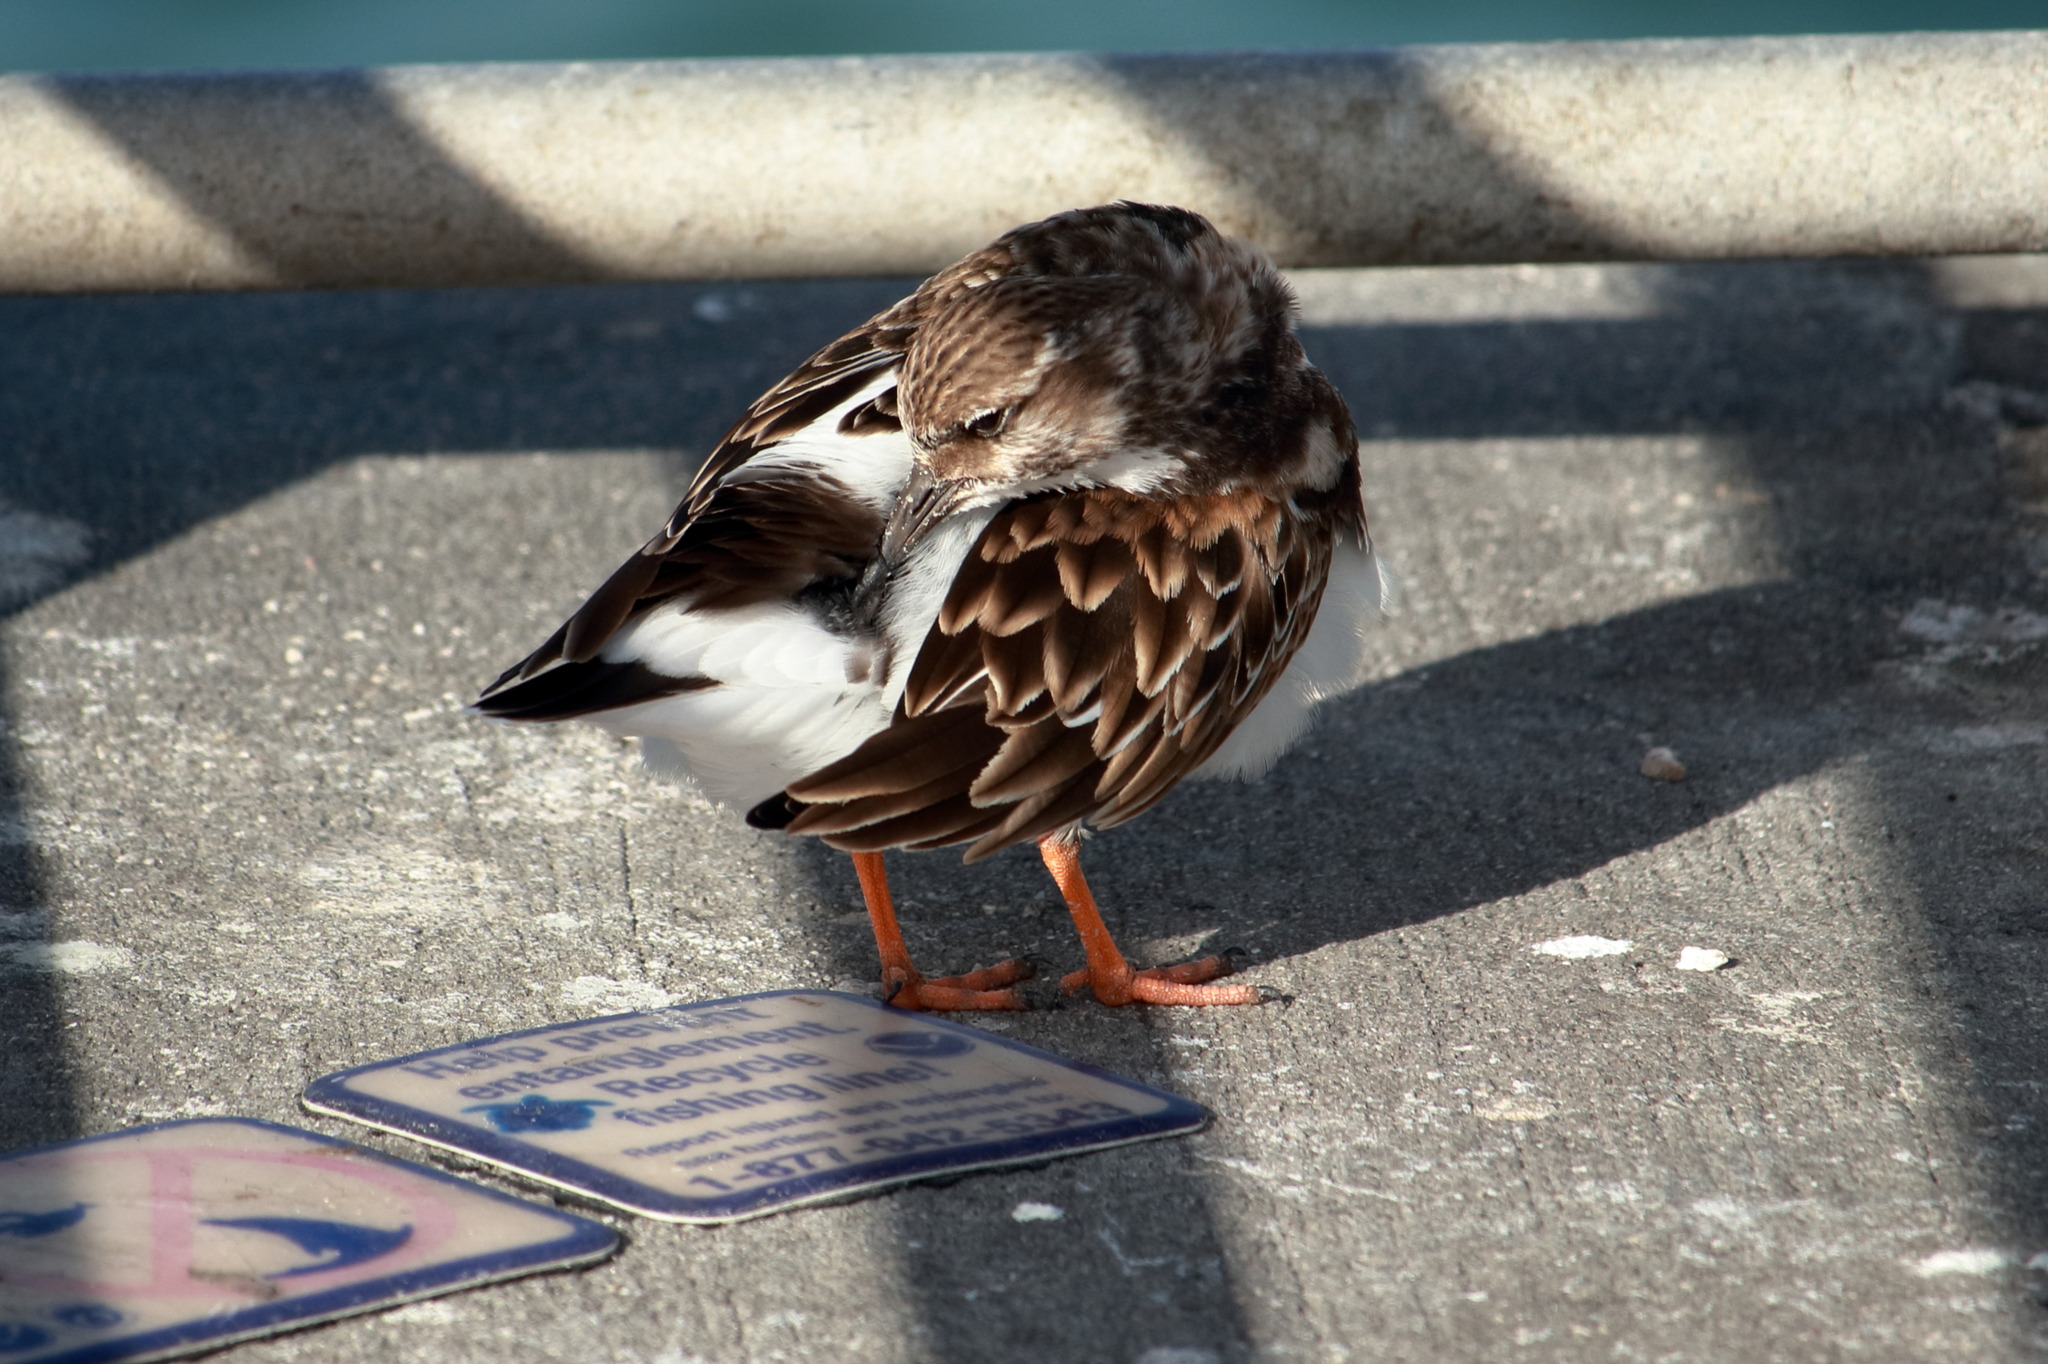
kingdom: Animalia
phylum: Chordata
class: Aves
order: Charadriiformes
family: Scolopacidae
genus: Arenaria
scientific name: Arenaria interpres
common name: Ruddy turnstone
